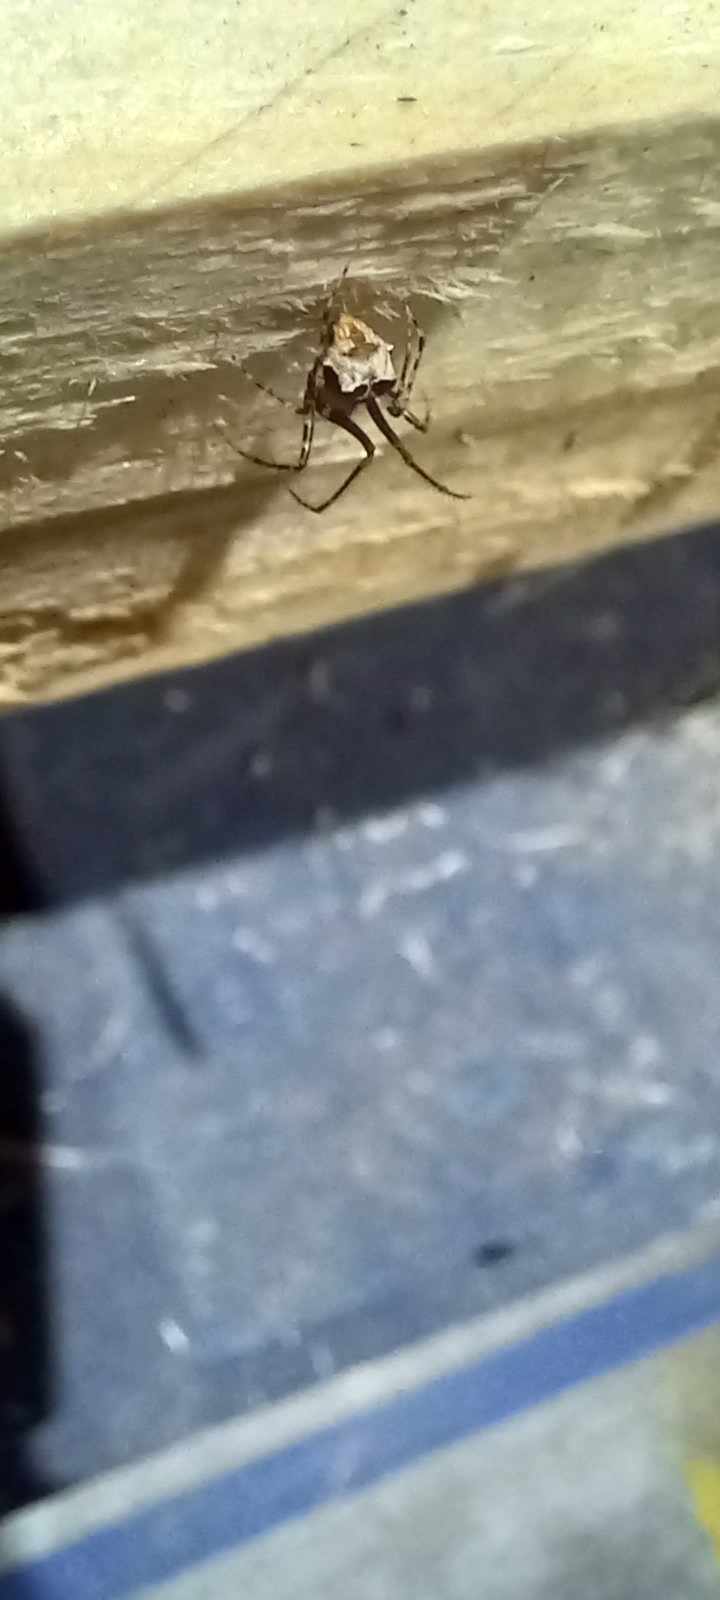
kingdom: Animalia
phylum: Arthropoda
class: Arachnida
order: Araneae
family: Mimetidae
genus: Ero
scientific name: Ero tuberculata
